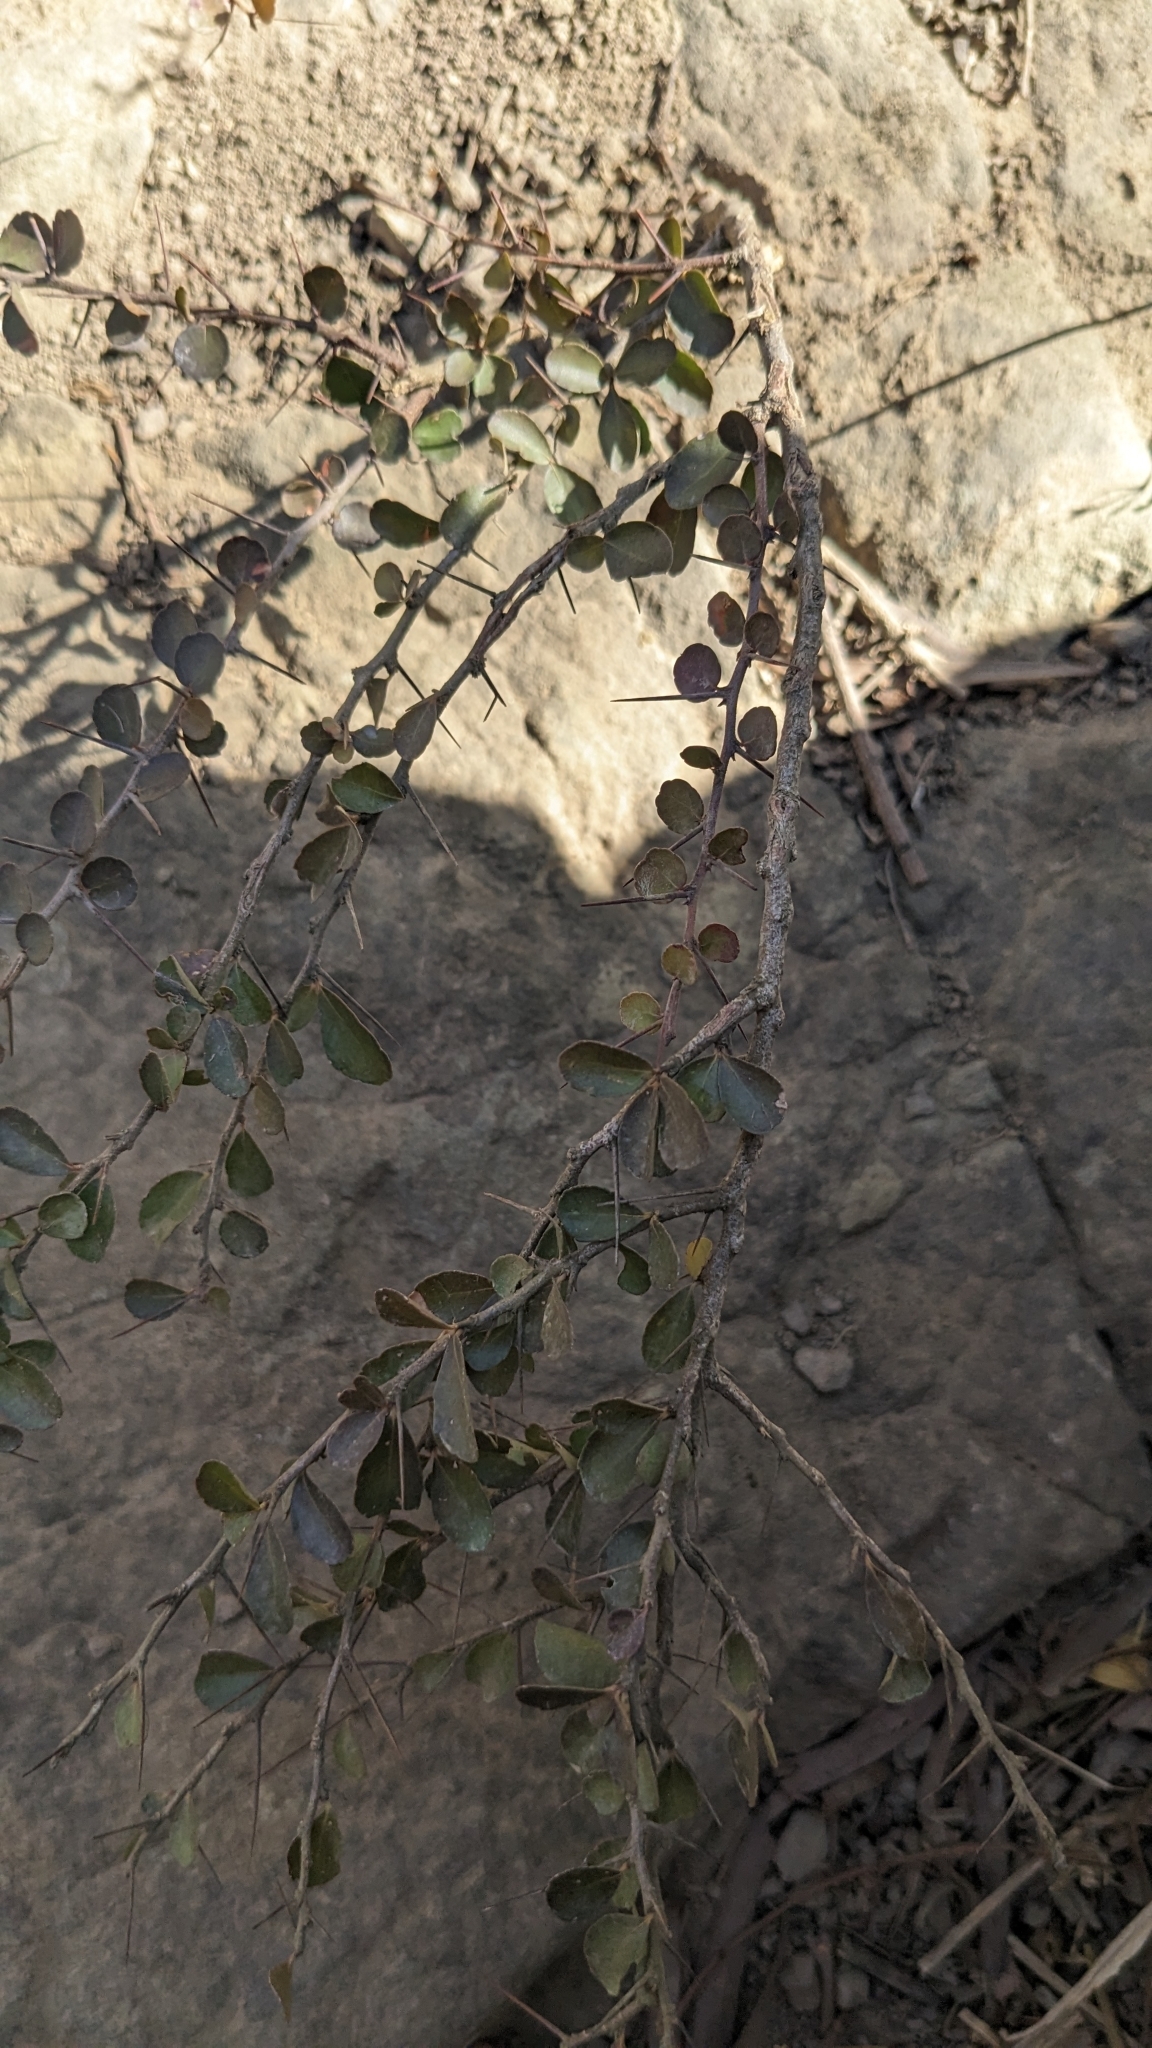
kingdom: Plantae
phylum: Tracheophyta
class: Magnoliopsida
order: Celastrales
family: Celastraceae
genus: Gymnosporia
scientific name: Gymnosporia diversifolia
